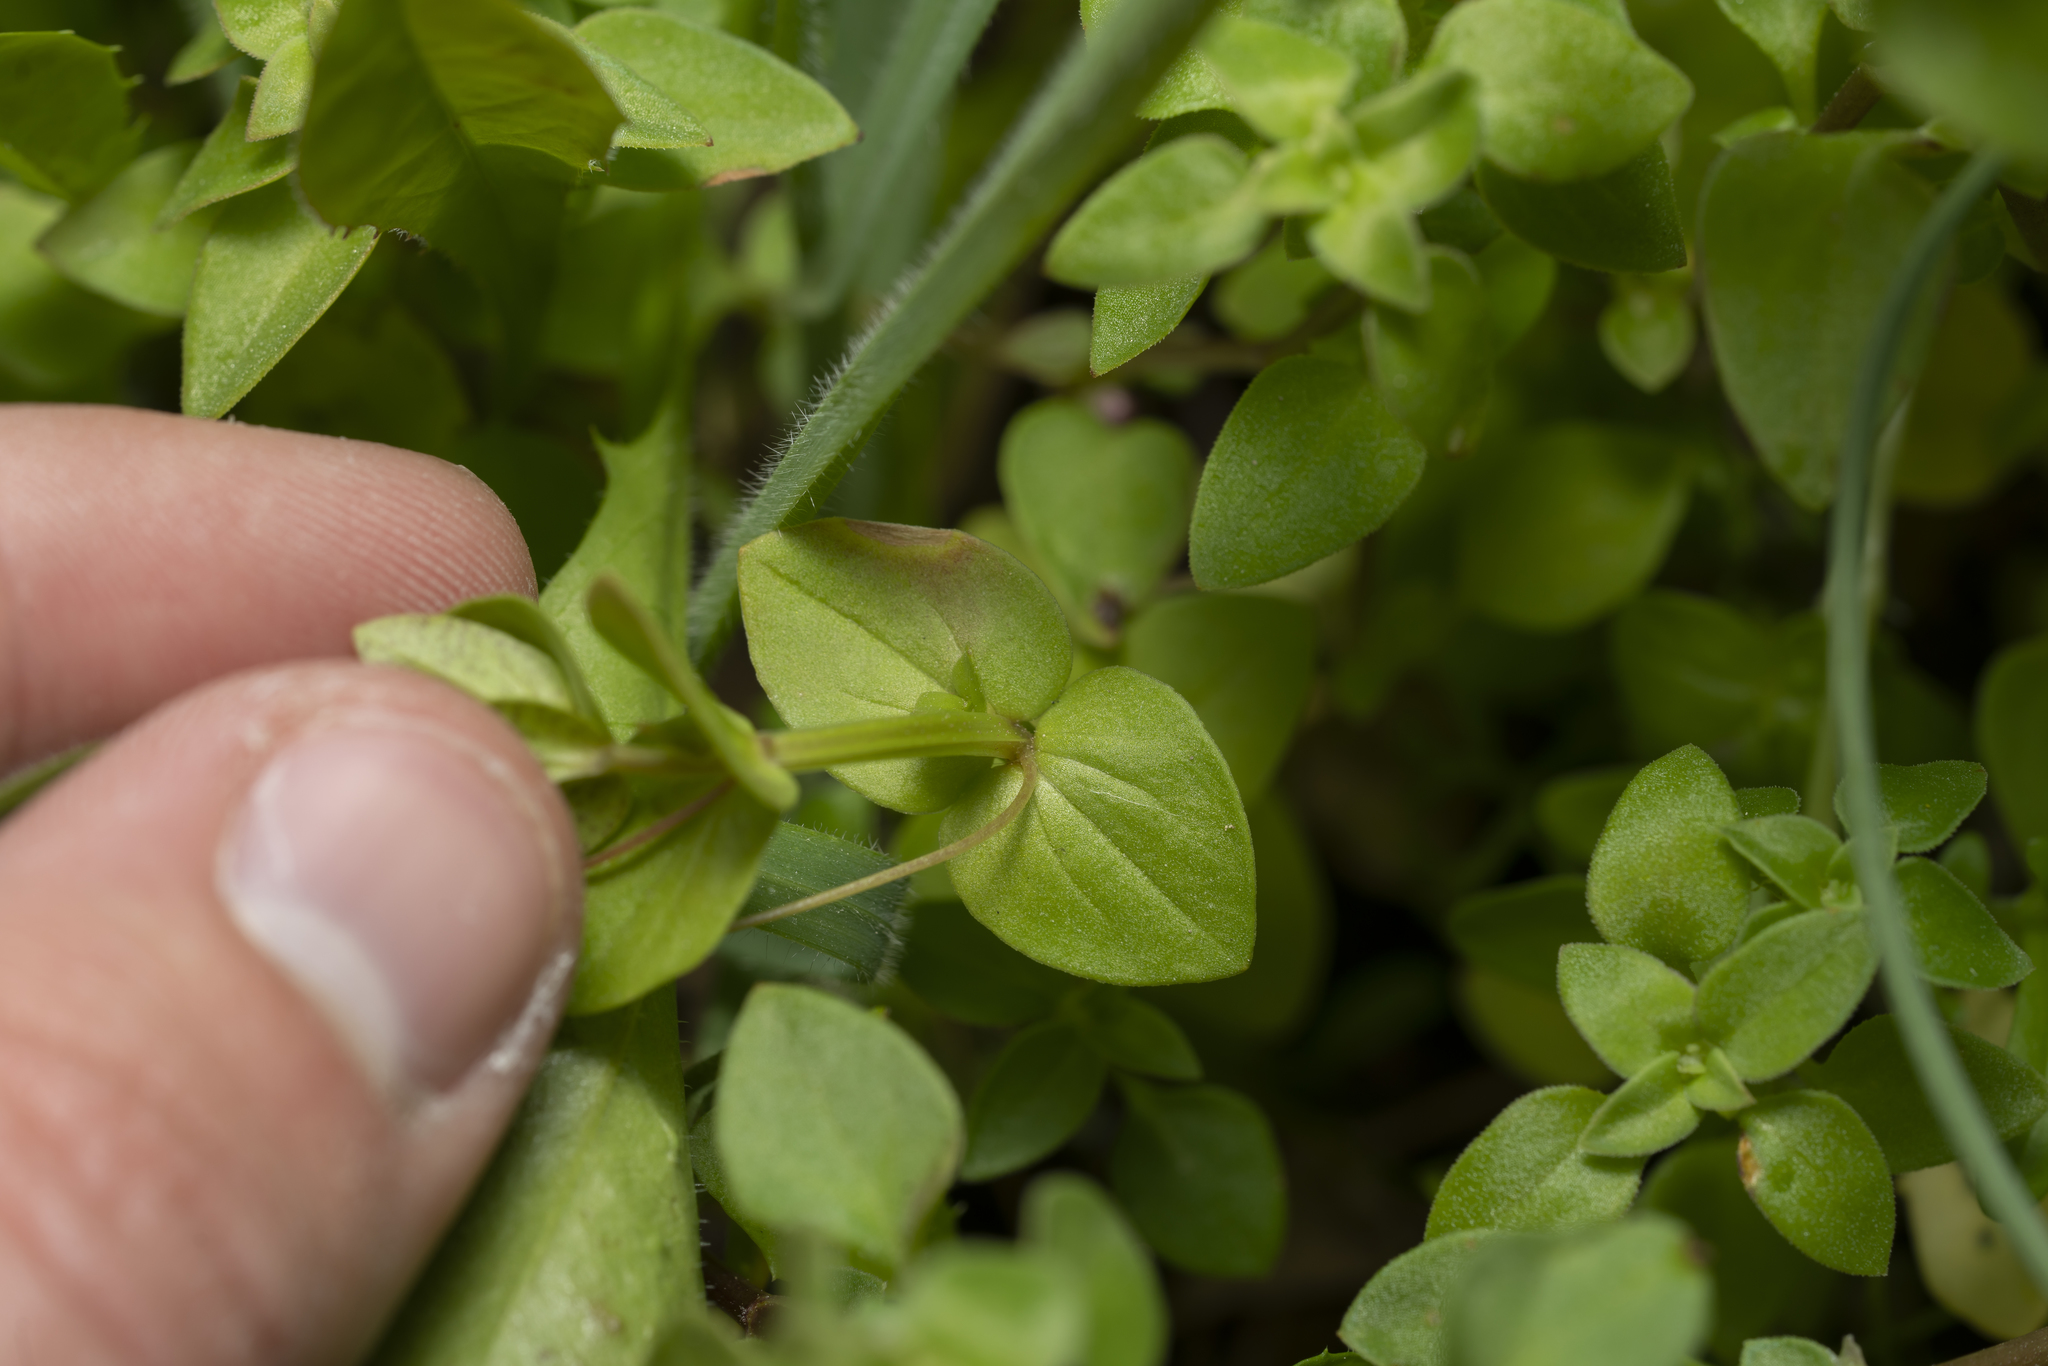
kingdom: Plantae
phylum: Tracheophyta
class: Magnoliopsida
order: Ericales
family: Primulaceae
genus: Lysimachia
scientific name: Lysimachia loeflingii
